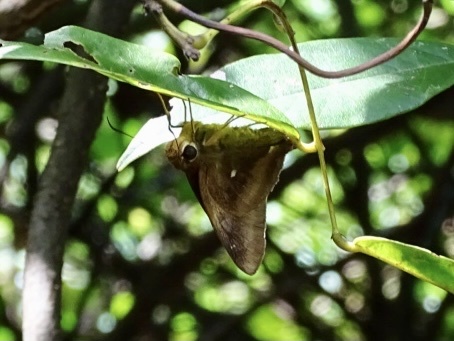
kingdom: Animalia
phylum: Arthropoda
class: Insecta
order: Lepidoptera
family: Hesperiidae
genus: Hasora
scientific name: Hasora badra
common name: Common awl
